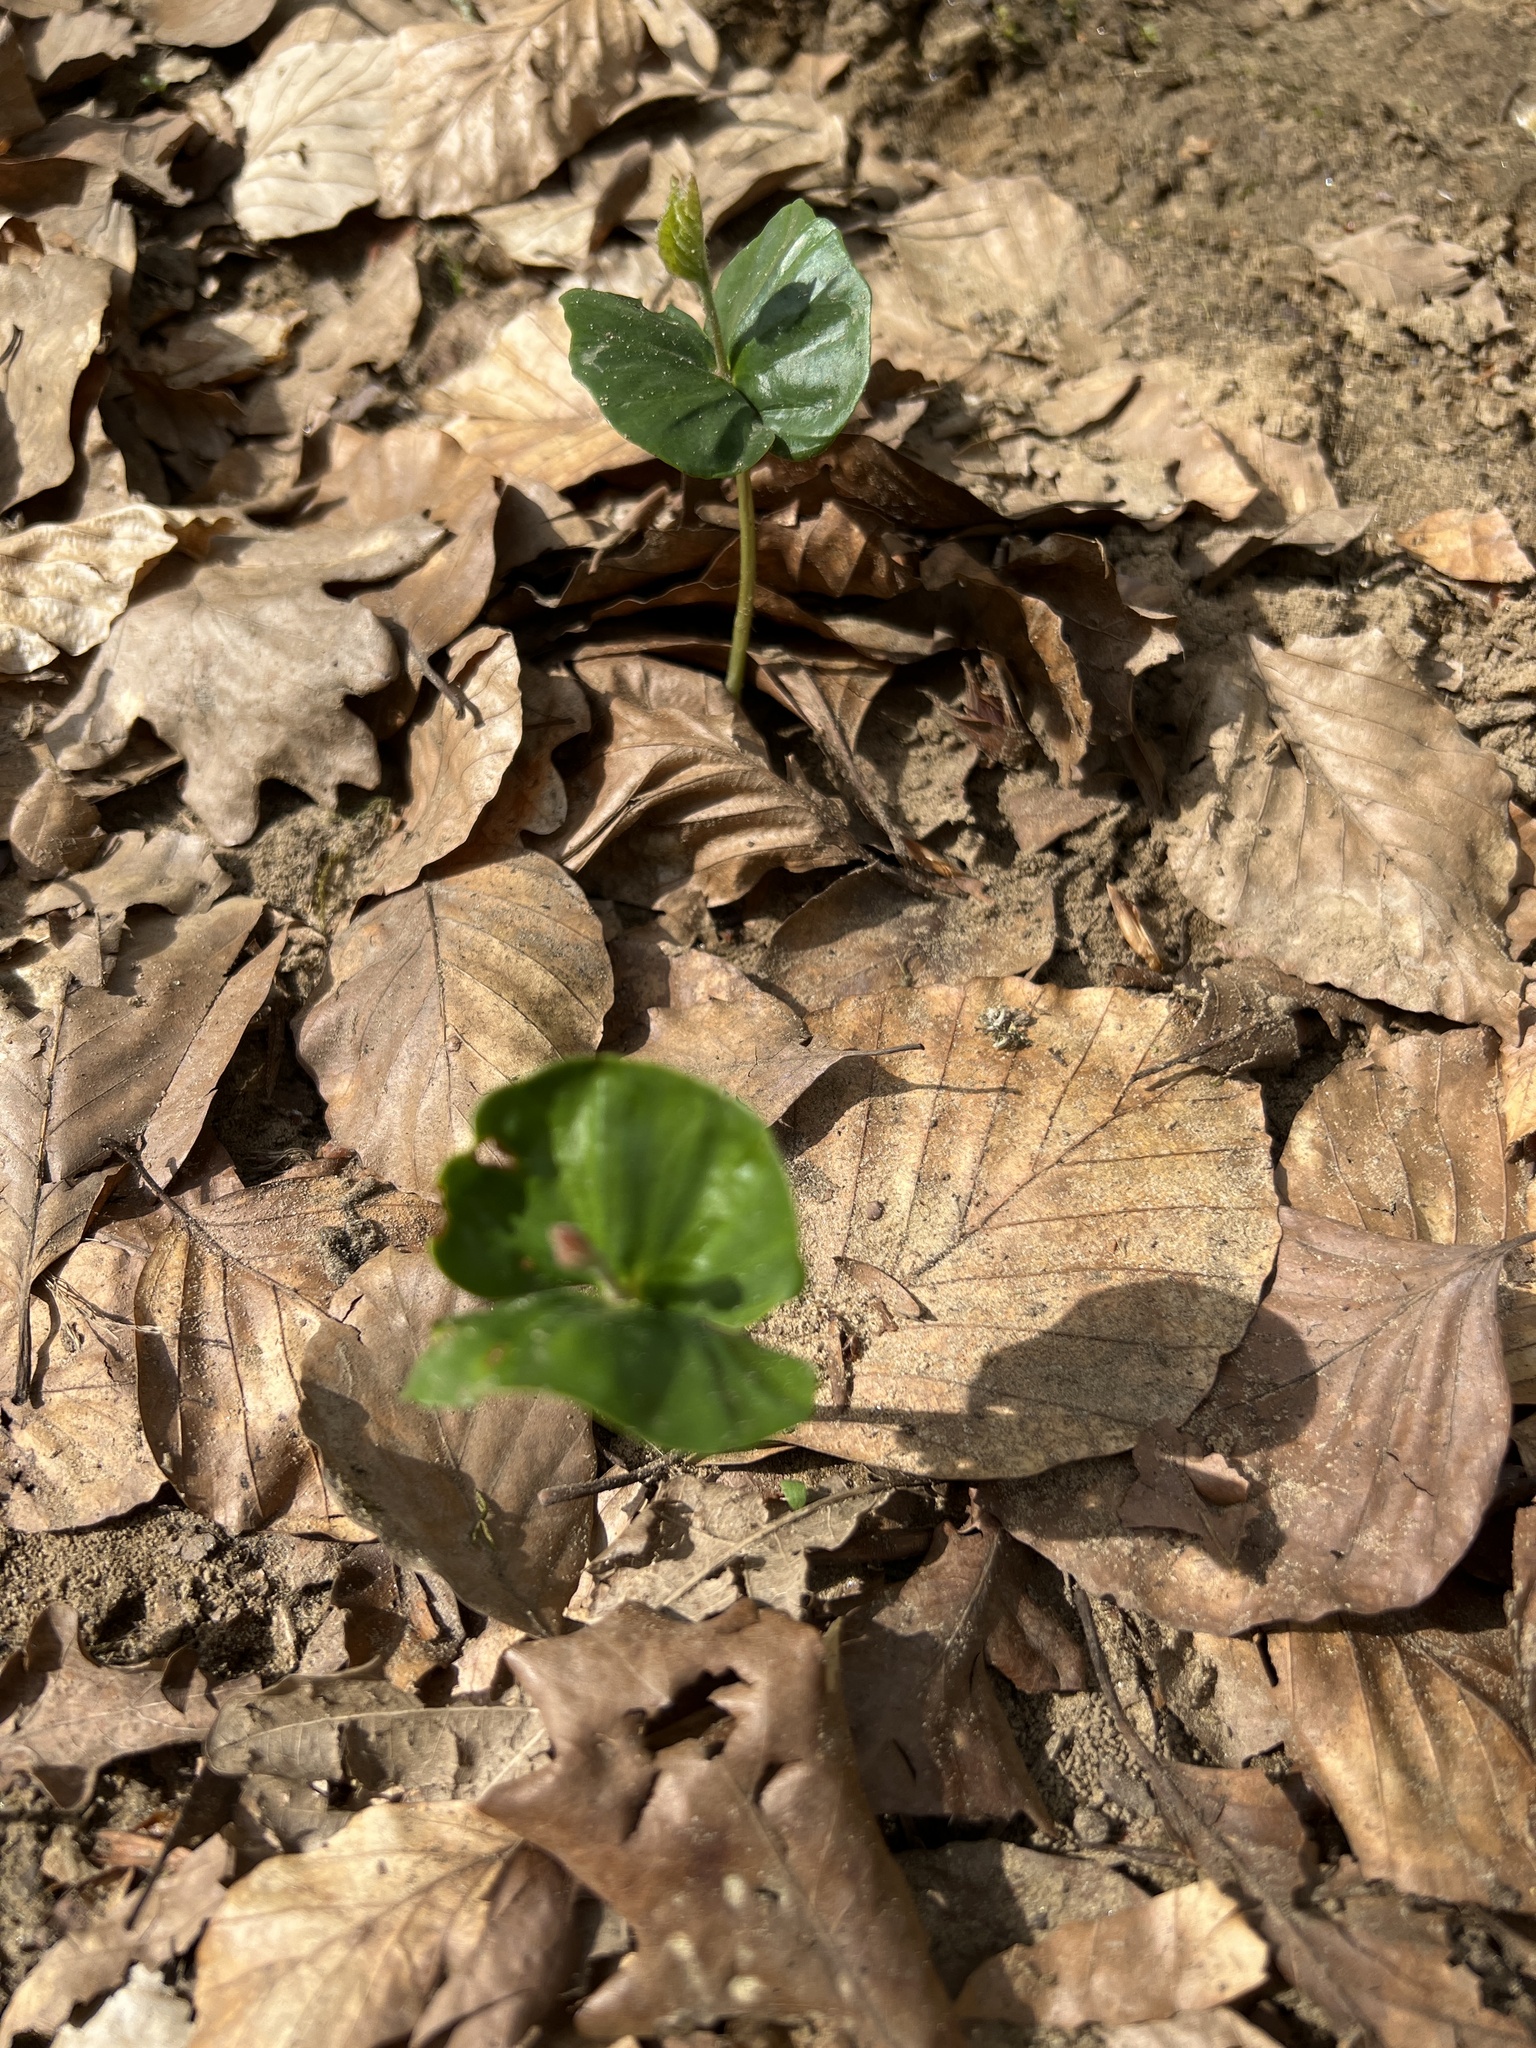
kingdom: Plantae
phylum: Tracheophyta
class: Magnoliopsida
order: Fagales
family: Fagaceae
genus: Fagus
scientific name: Fagus sylvatica
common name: Beech
